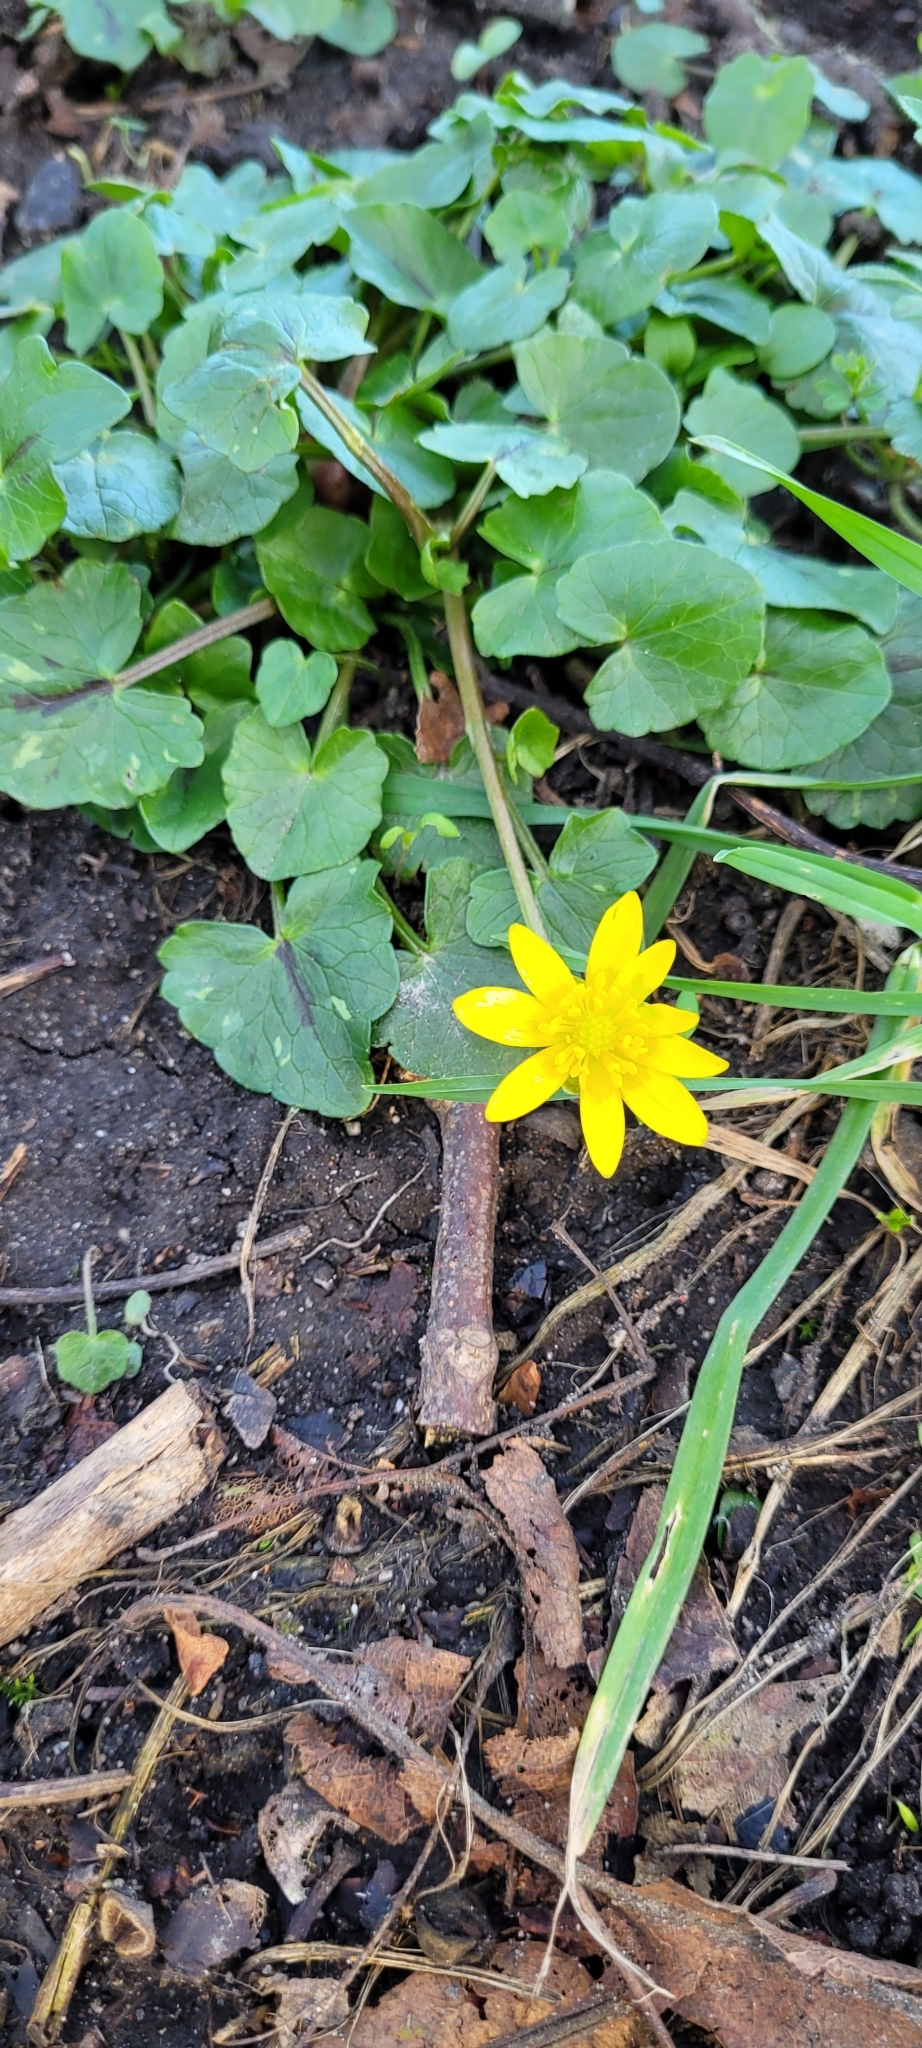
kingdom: Plantae
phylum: Tracheophyta
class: Magnoliopsida
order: Ranunculales
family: Ranunculaceae
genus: Ficaria
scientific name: Ficaria verna
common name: Lesser celandine
